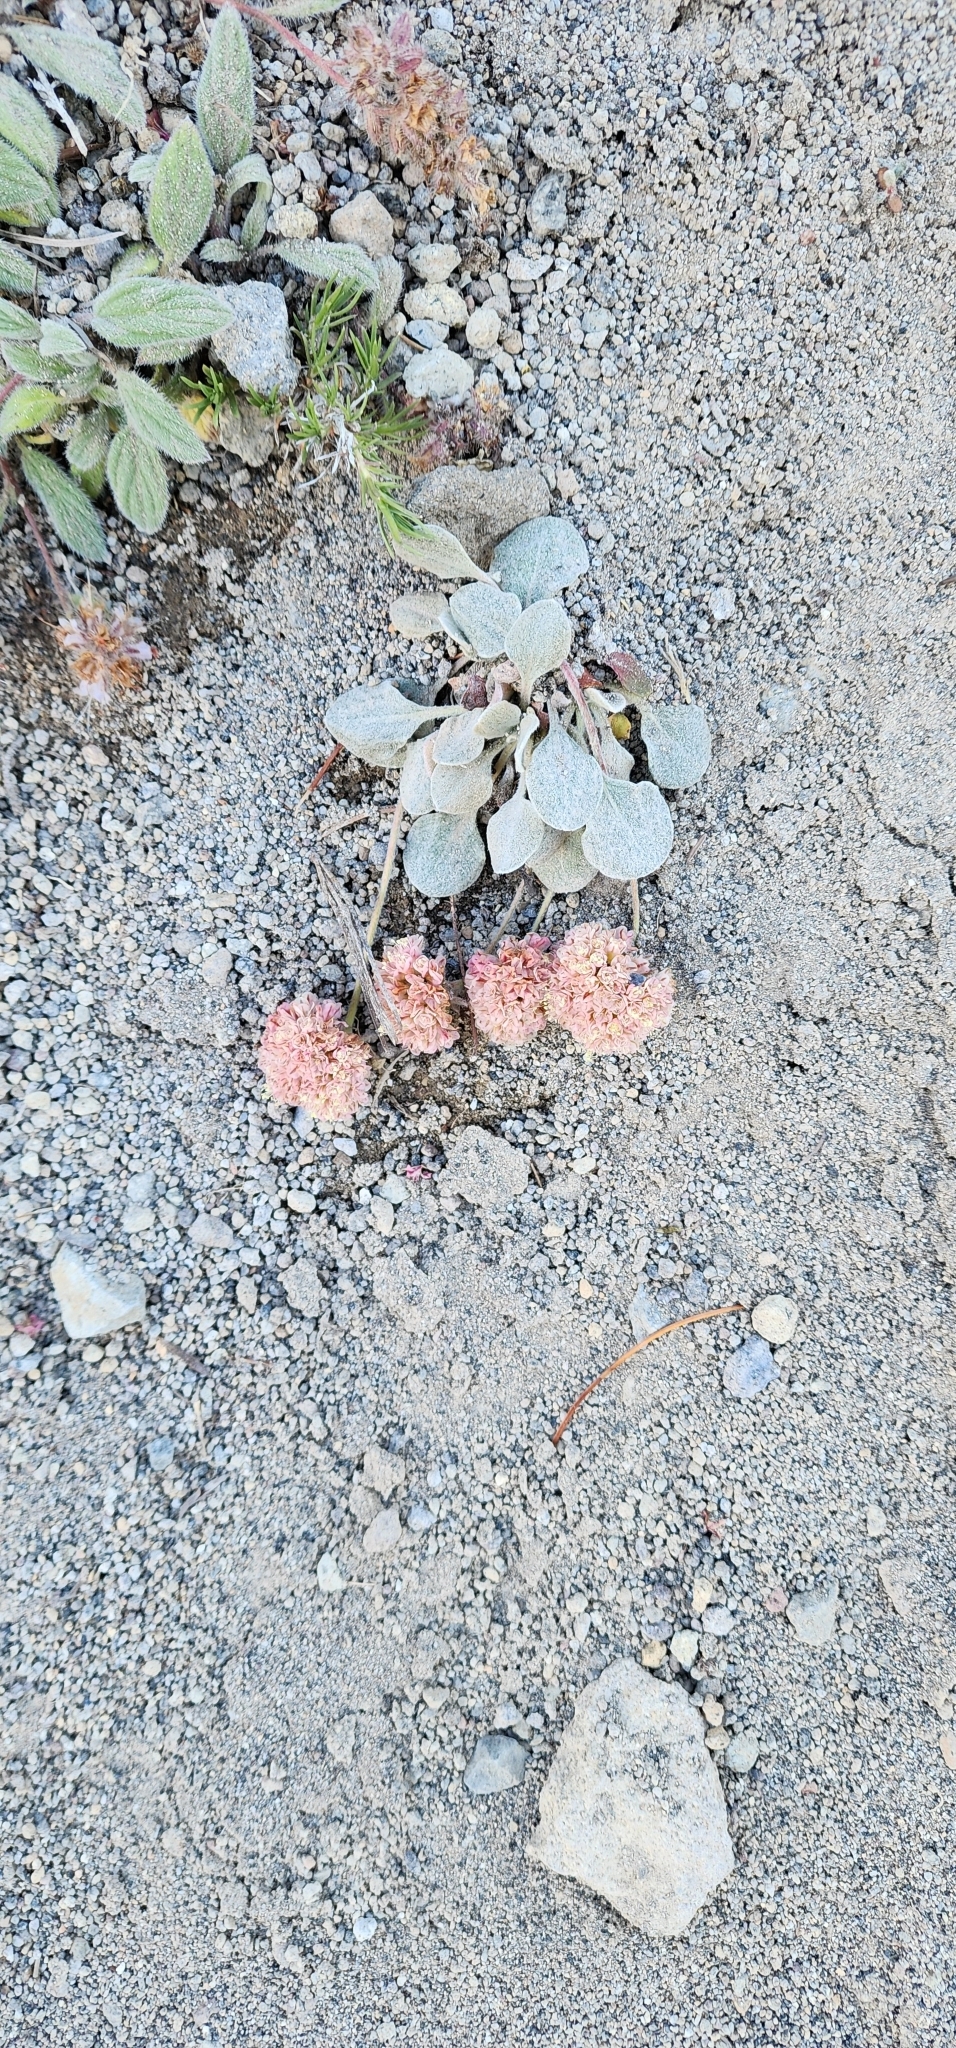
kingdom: Plantae
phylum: Tracheophyta
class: Magnoliopsida
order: Caryophyllales
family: Polygonaceae
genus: Eriogonum
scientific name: Eriogonum lobbii
